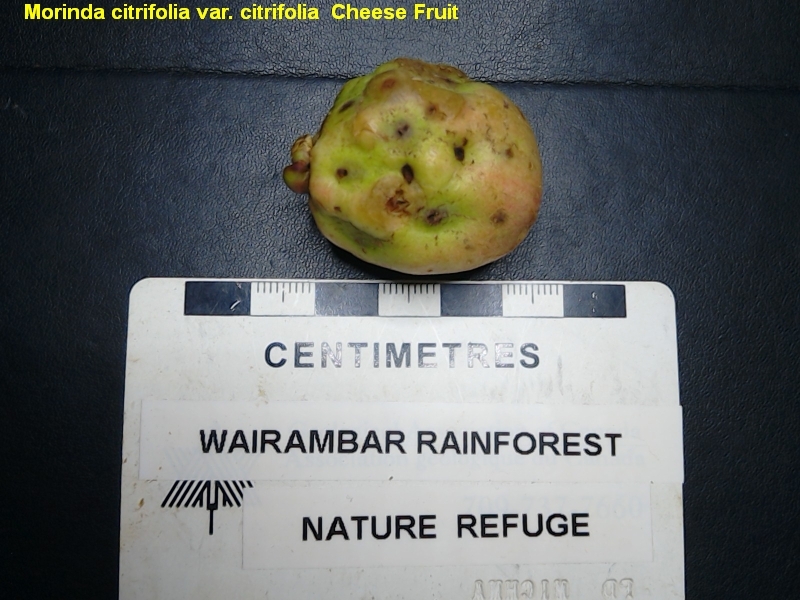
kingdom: Plantae
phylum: Tracheophyta
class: Magnoliopsida
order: Gentianales
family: Rubiaceae
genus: Morinda
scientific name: Morinda citrifolia
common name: Indian-mulberry
